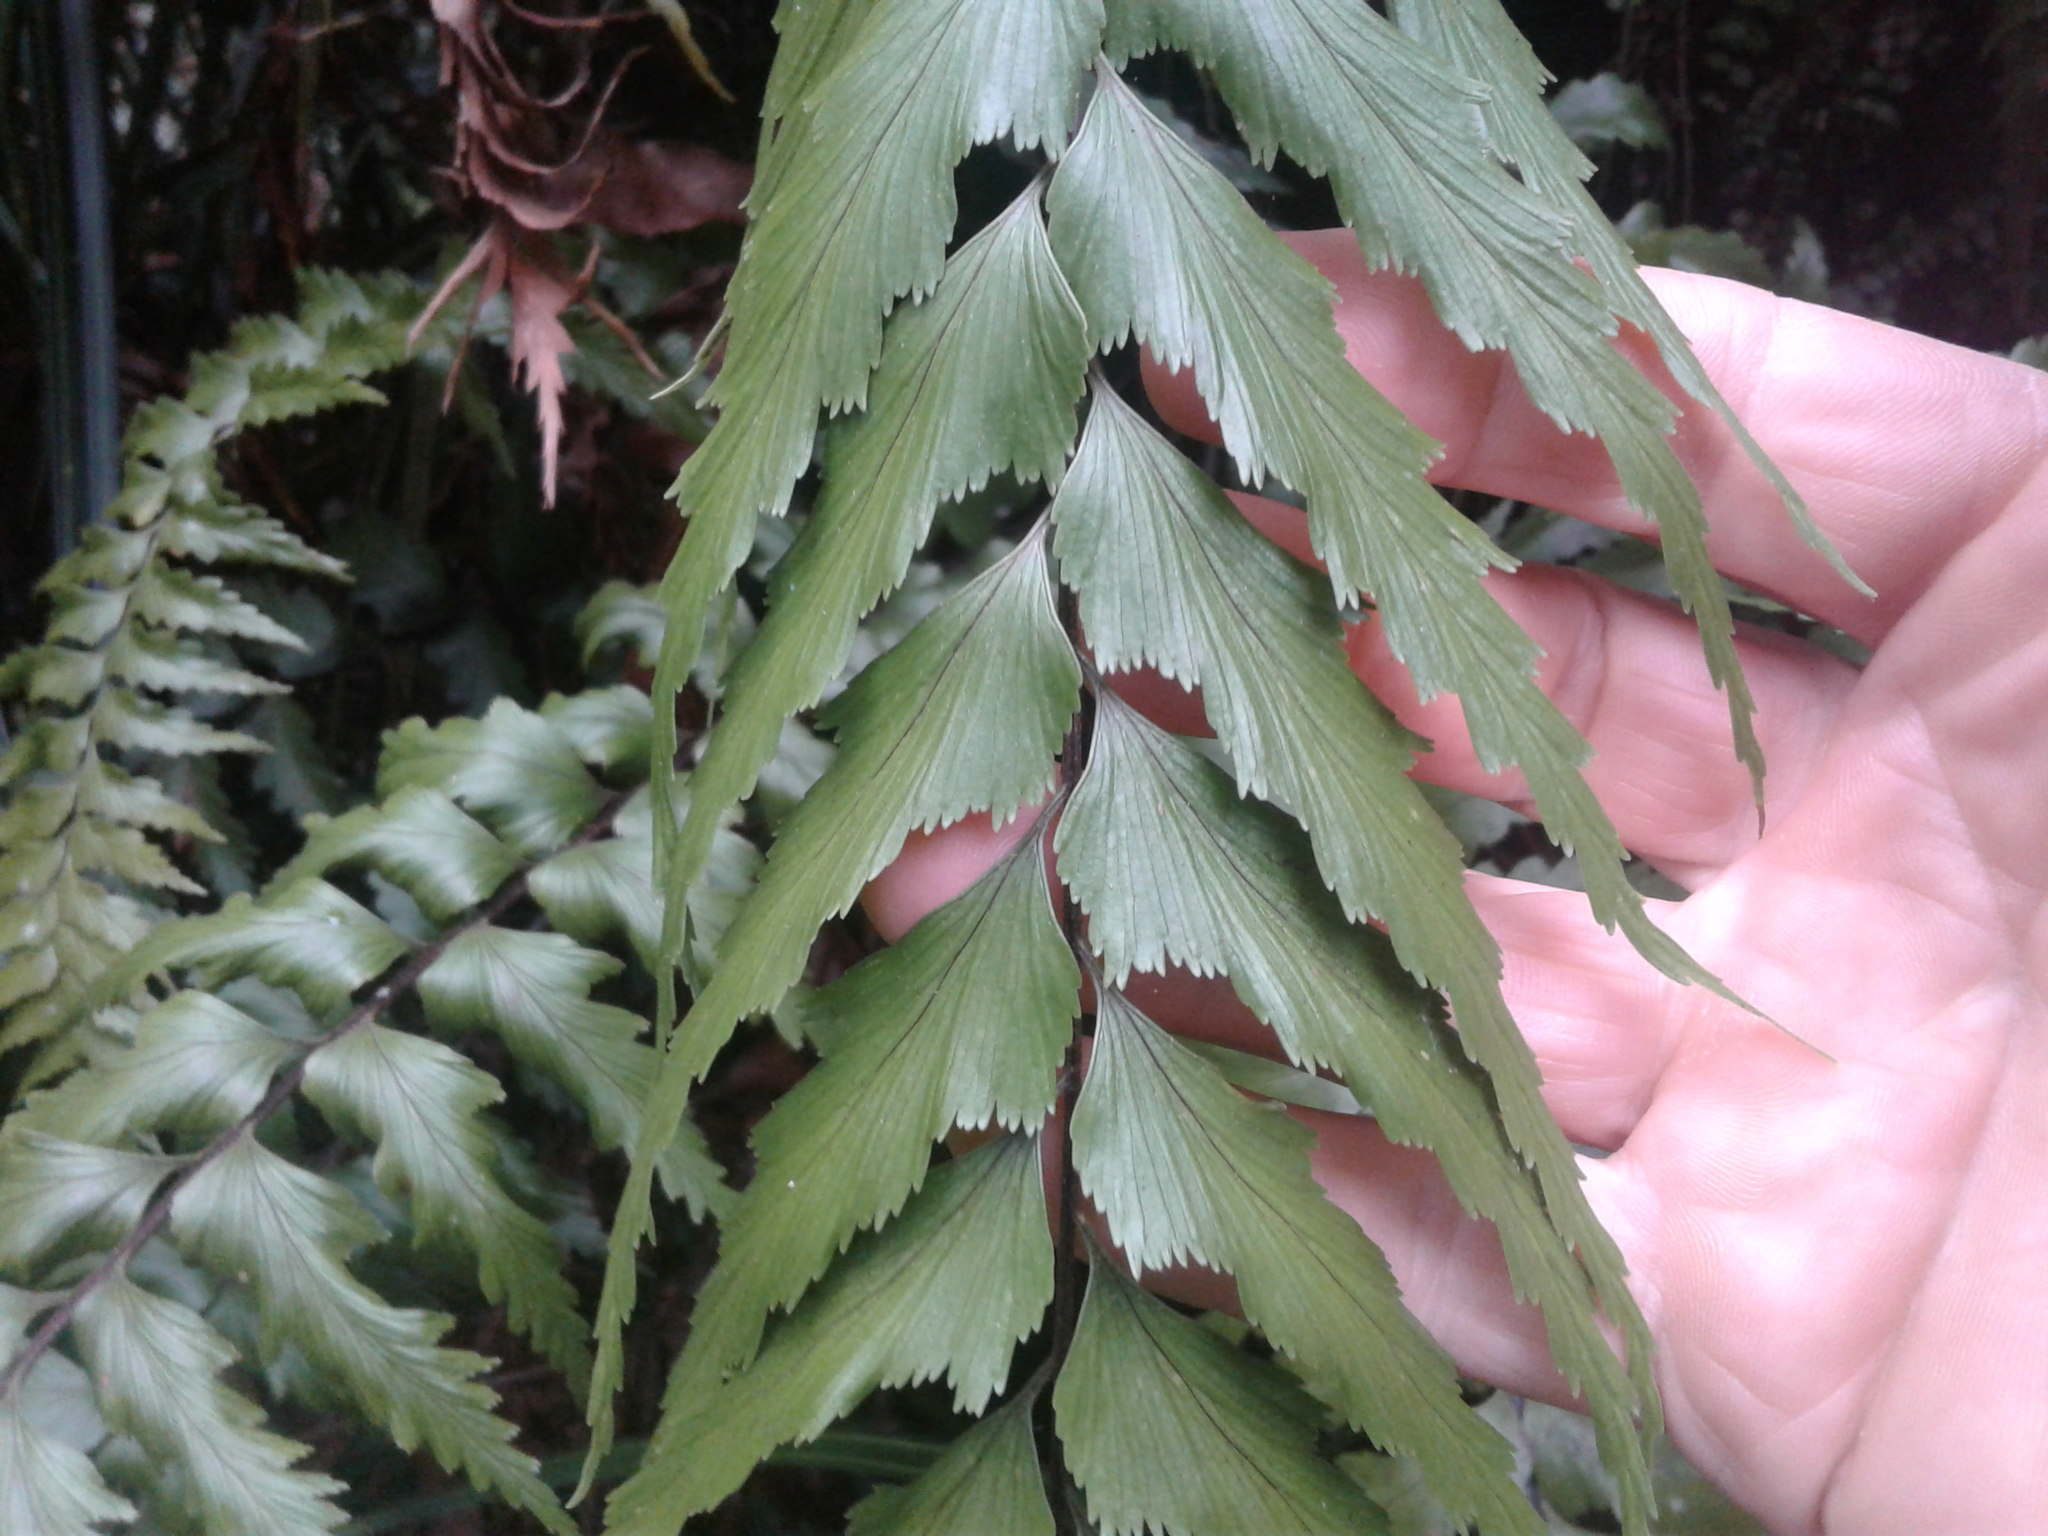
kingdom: Plantae
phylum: Tracheophyta
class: Polypodiopsida
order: Polypodiales
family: Aspleniaceae
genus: Asplenium
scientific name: Asplenium polyodon
